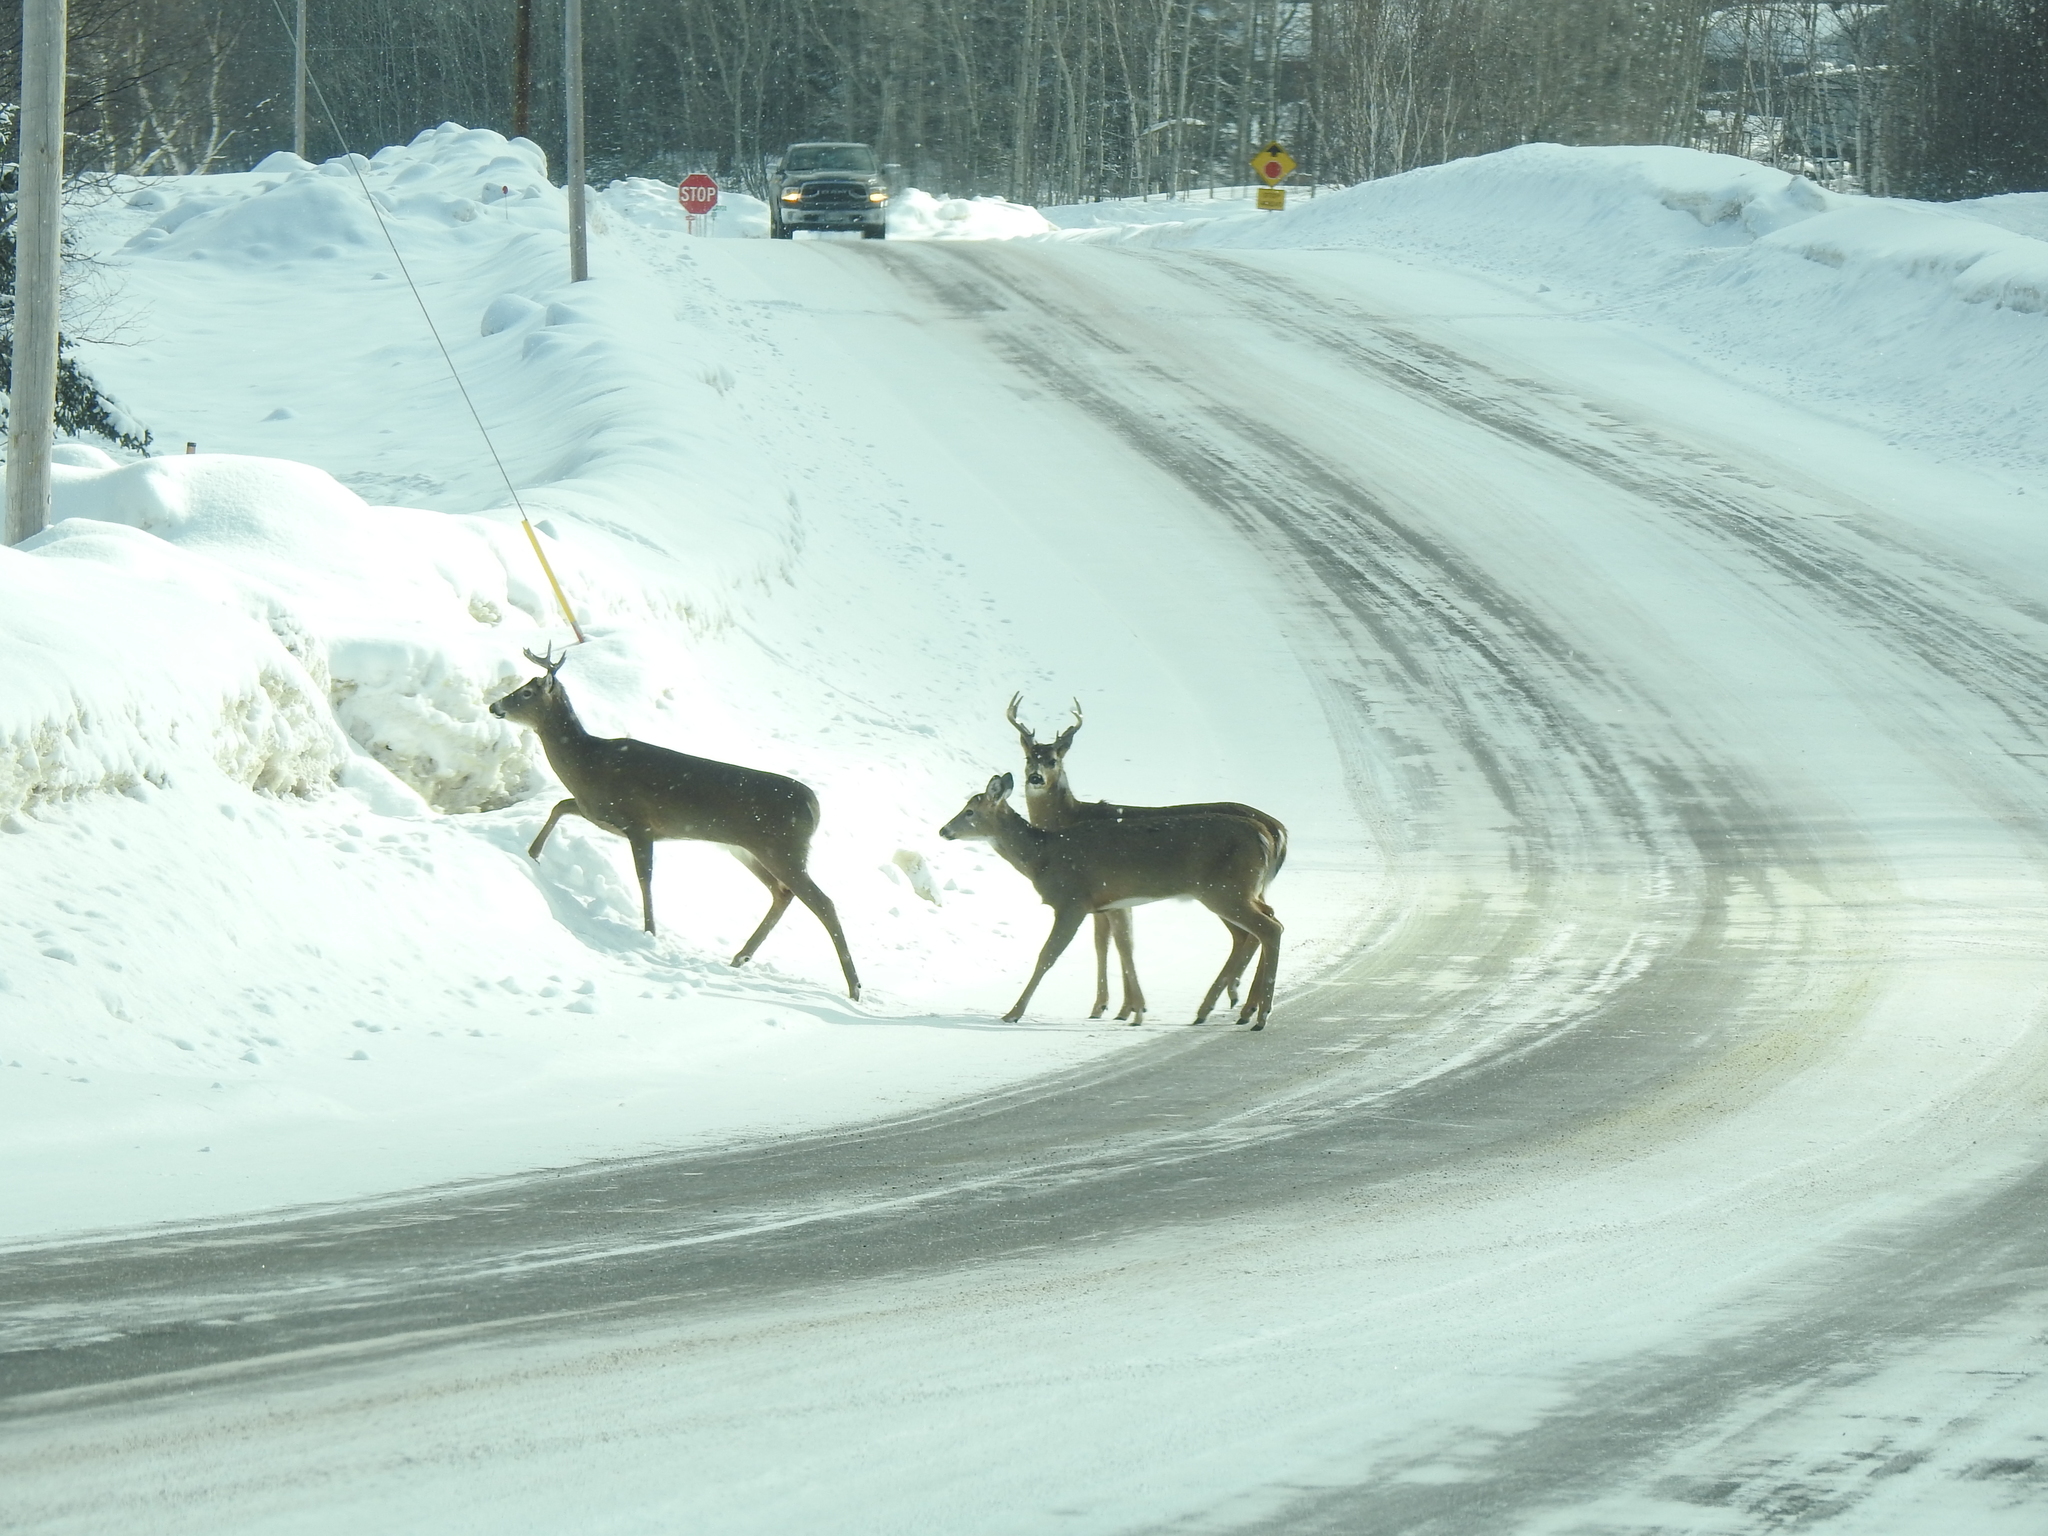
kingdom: Animalia
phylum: Chordata
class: Mammalia
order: Artiodactyla
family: Cervidae
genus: Odocoileus
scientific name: Odocoileus virginianus
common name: White-tailed deer
